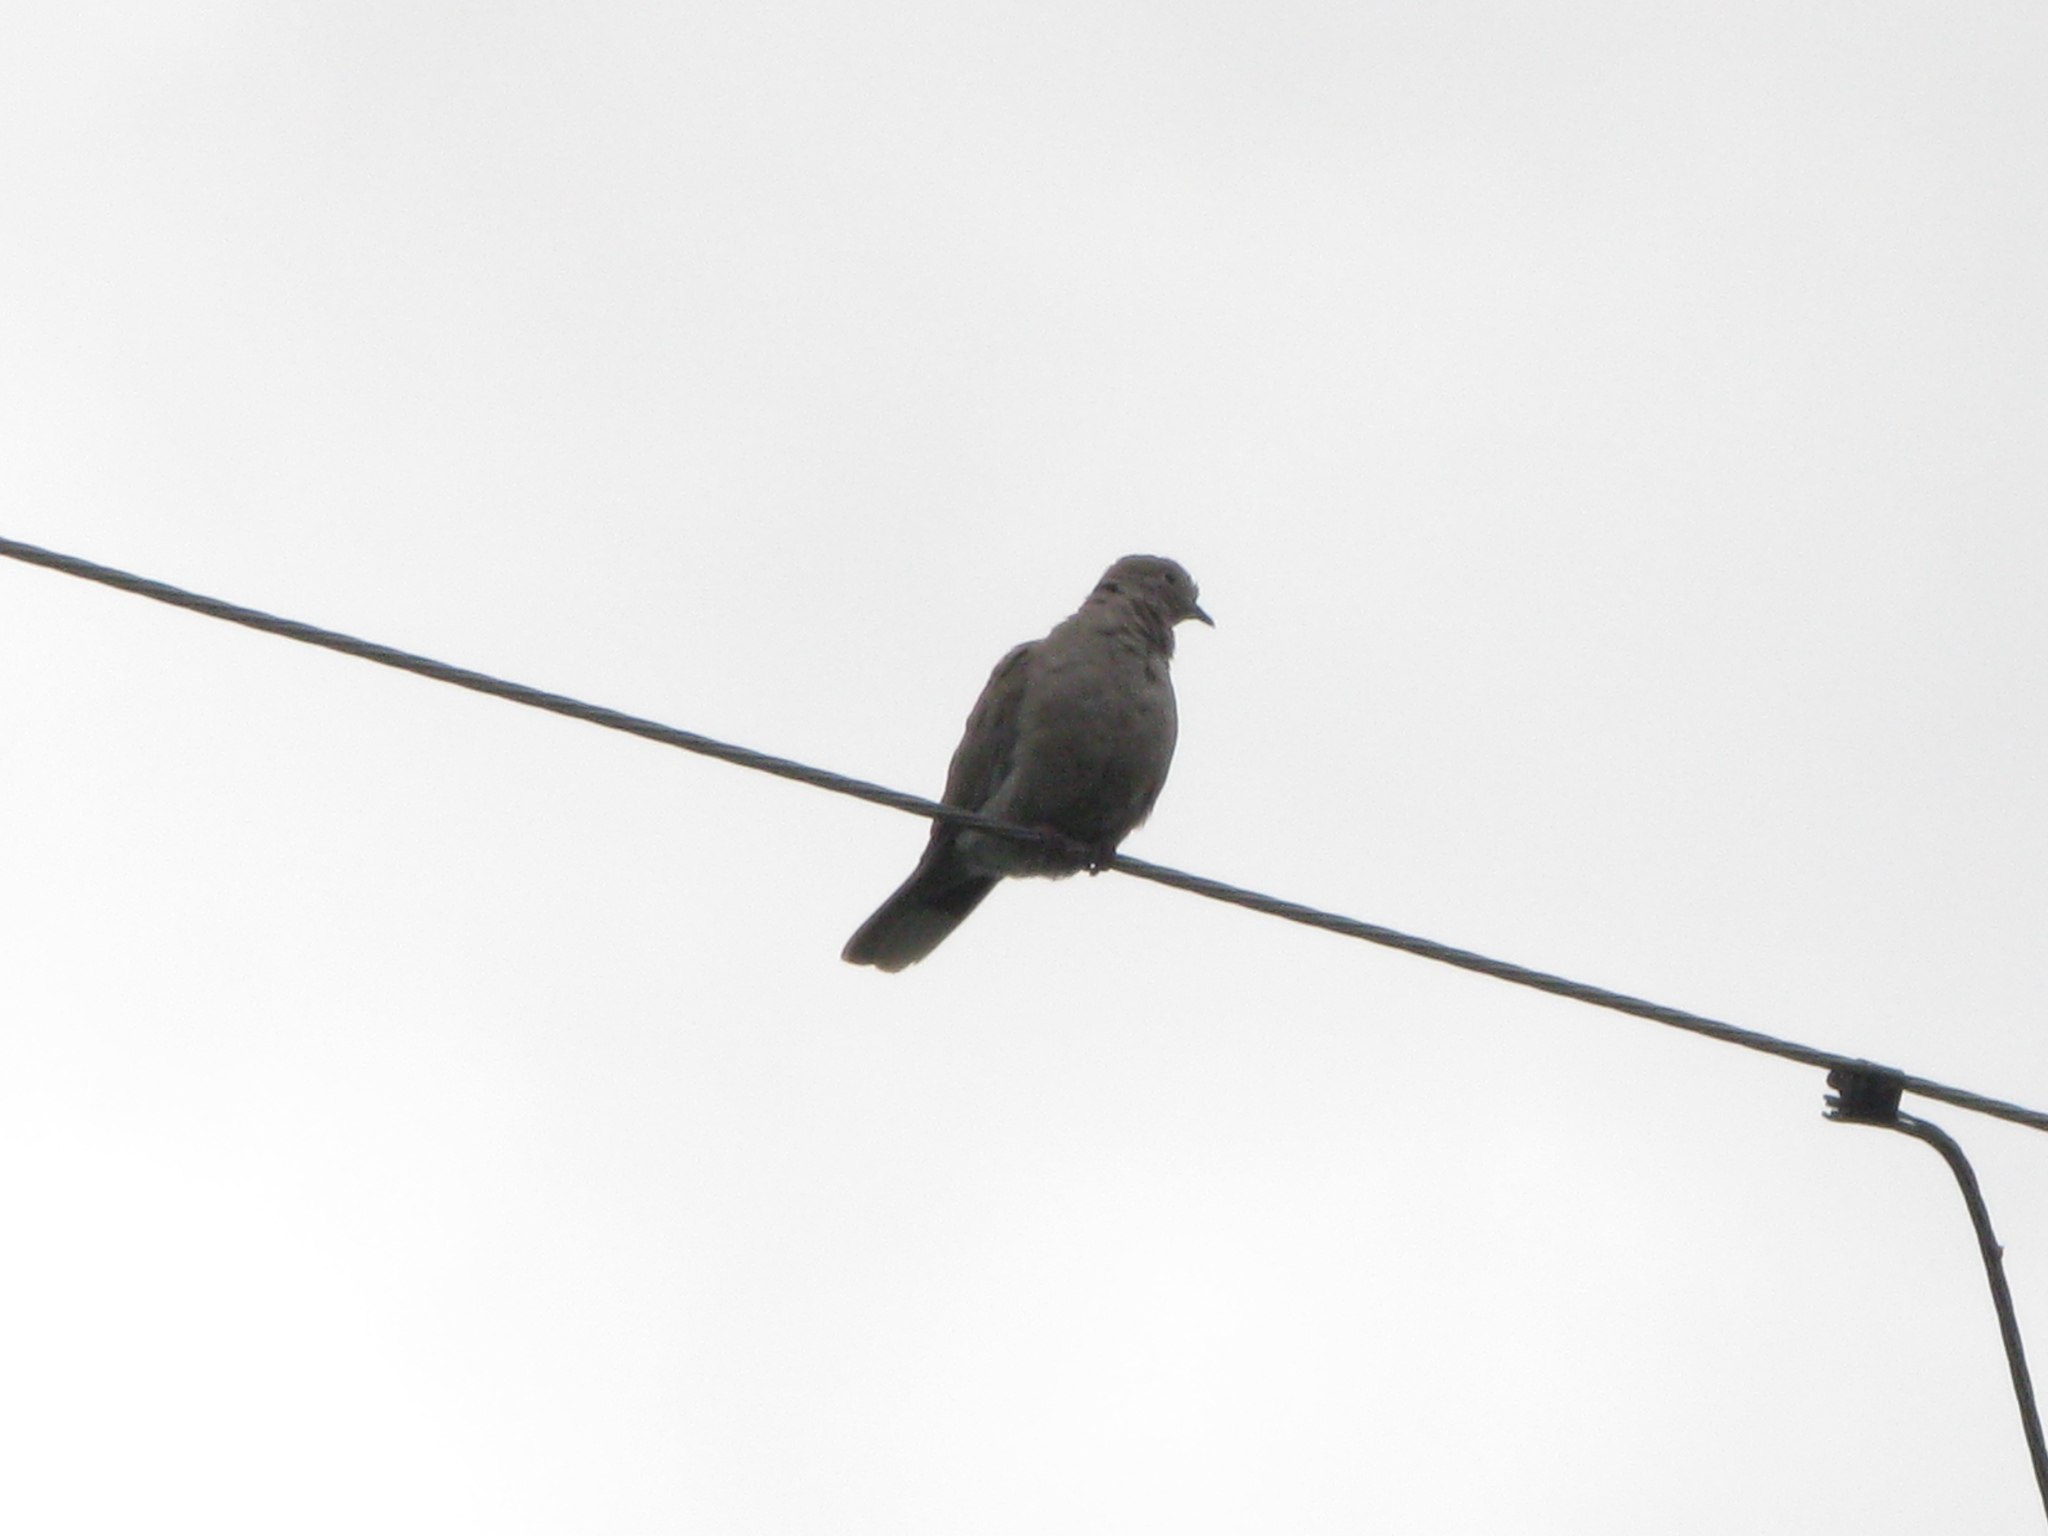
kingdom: Animalia
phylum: Chordata
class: Aves
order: Columbiformes
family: Columbidae
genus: Streptopelia
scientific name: Streptopelia decaocto
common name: Eurasian collared dove
